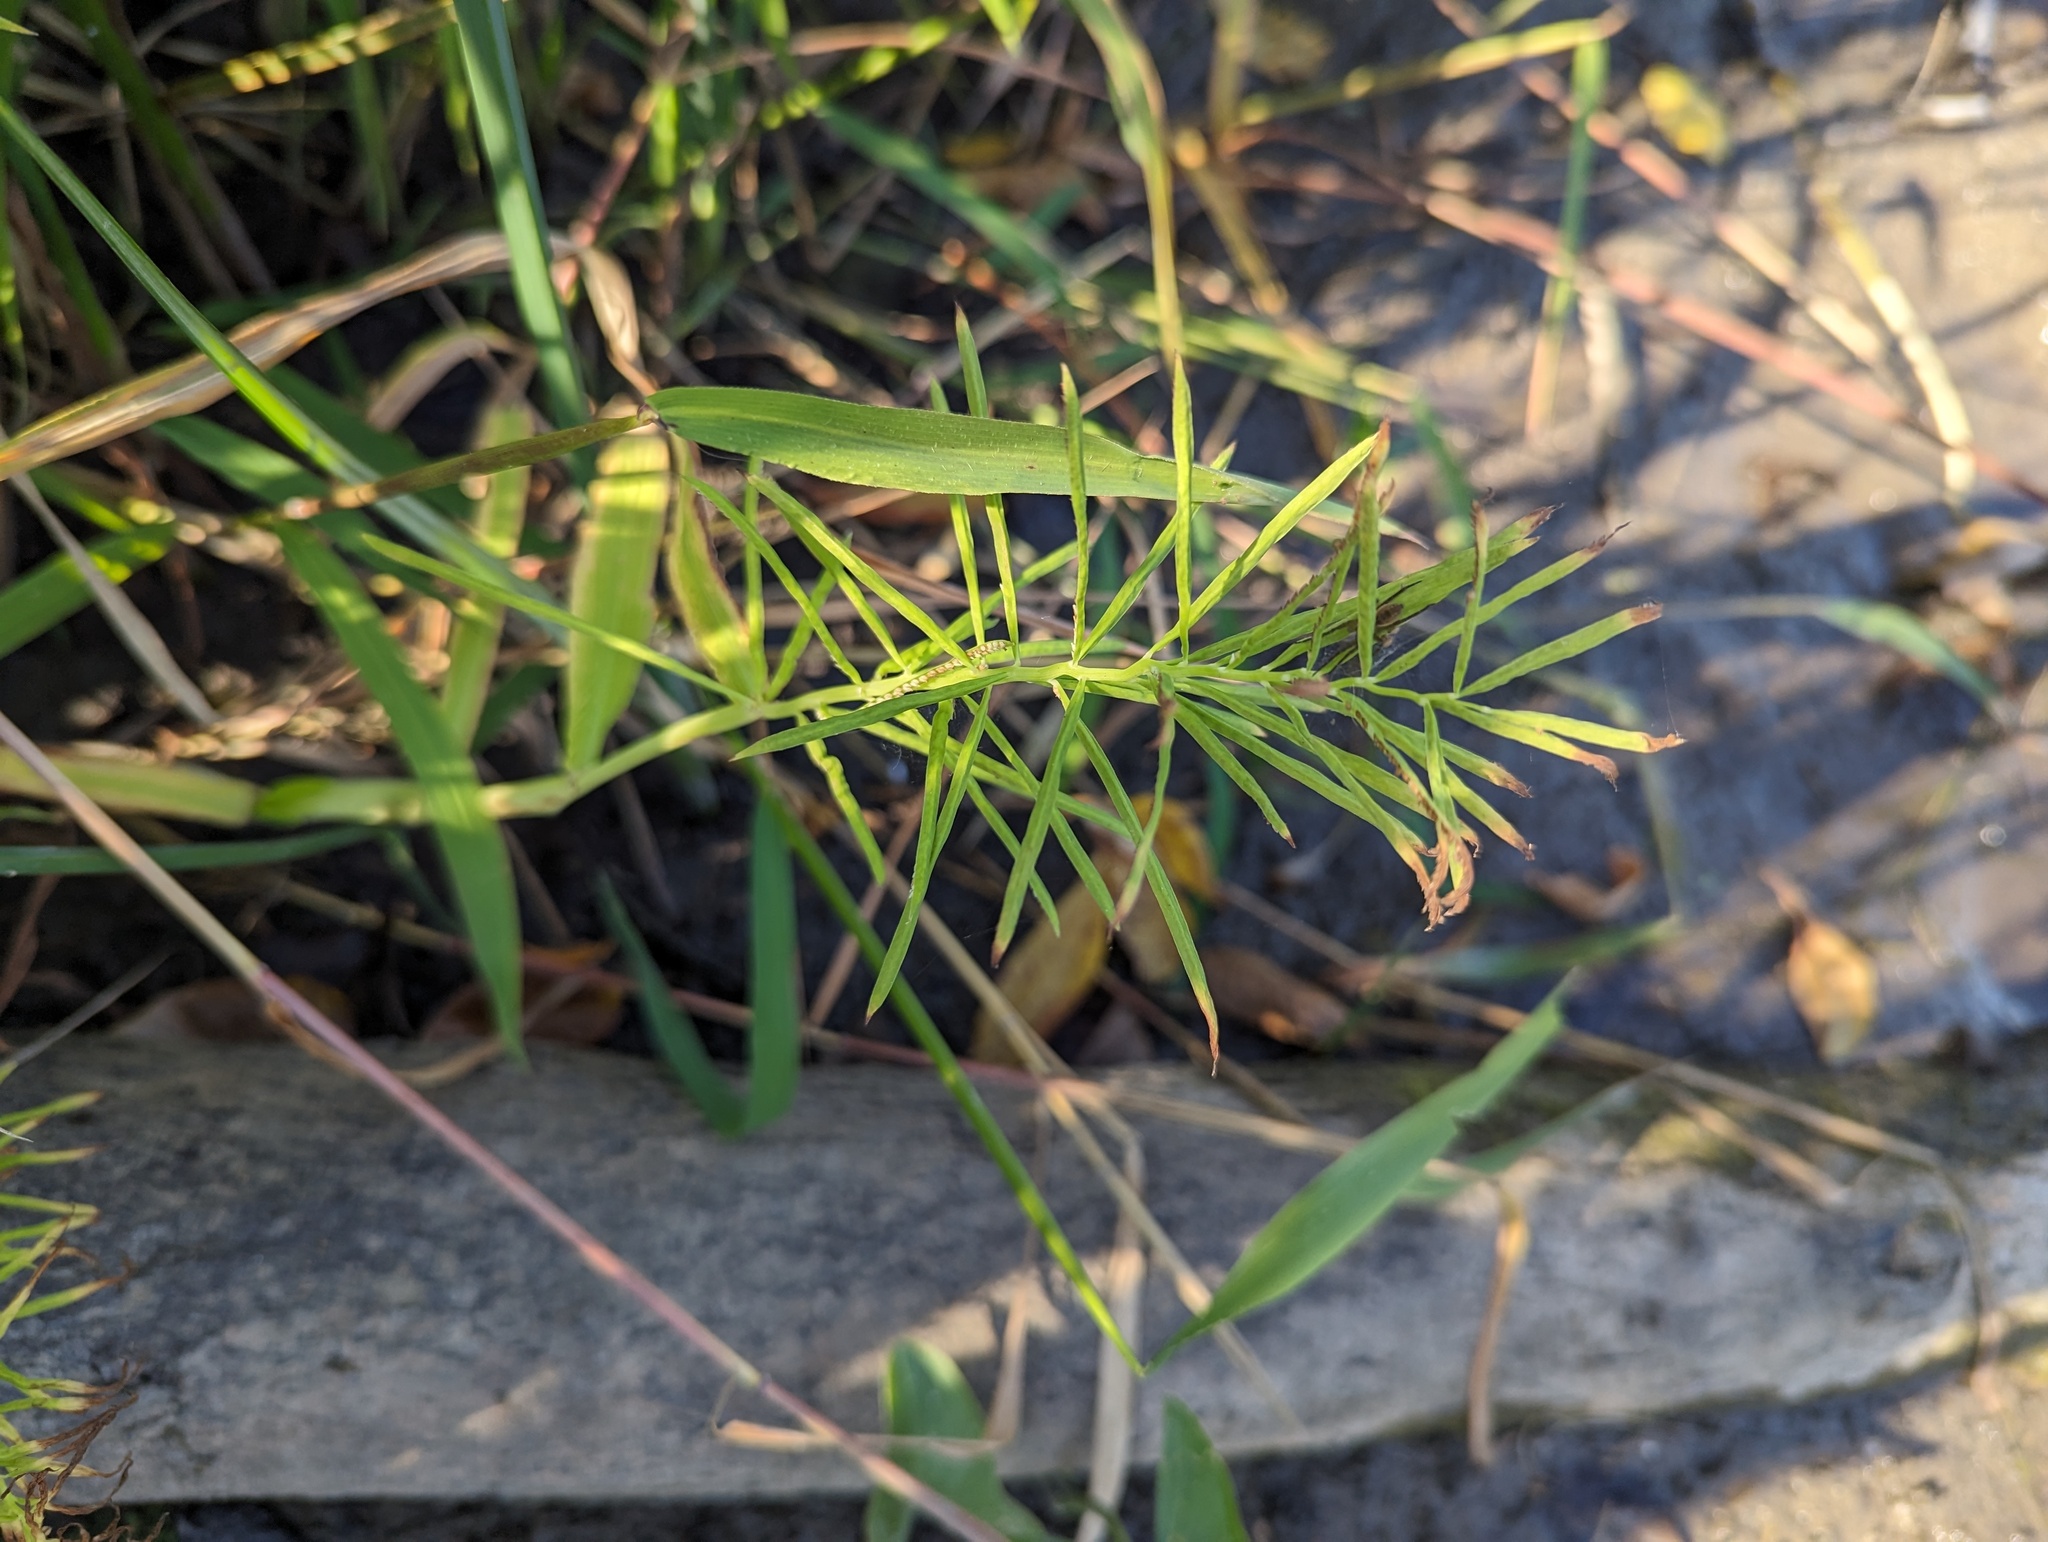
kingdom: Plantae
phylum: Tracheophyta
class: Liliopsida
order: Poales
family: Poaceae
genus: Paspalum
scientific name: Paspalum repens
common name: Water paspalum
